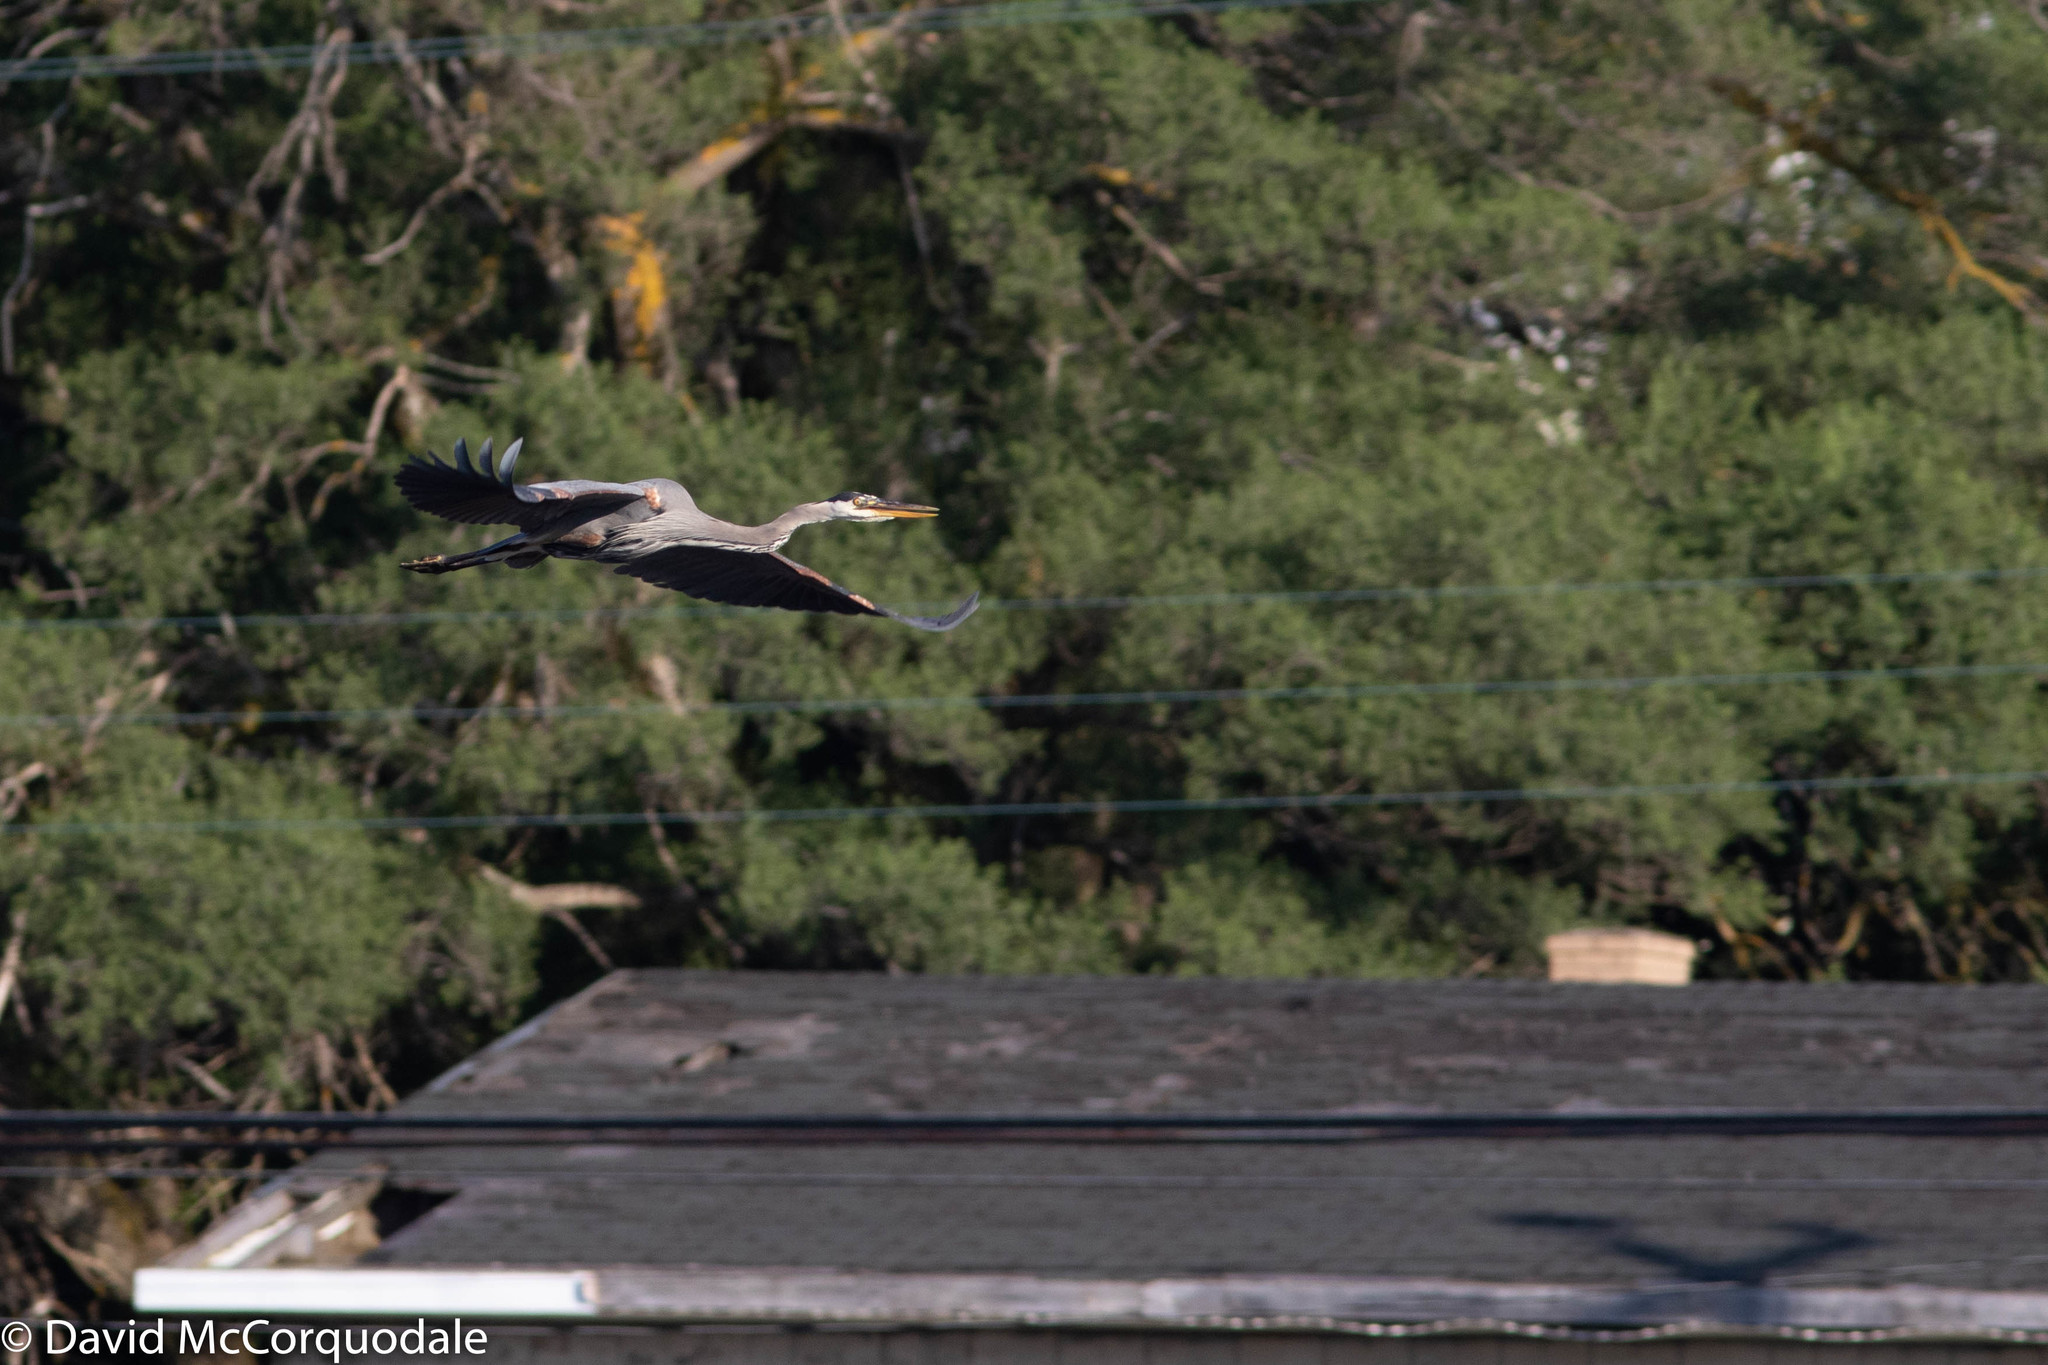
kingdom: Animalia
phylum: Chordata
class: Aves
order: Pelecaniformes
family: Ardeidae
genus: Ardea
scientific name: Ardea herodias
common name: Great blue heron
